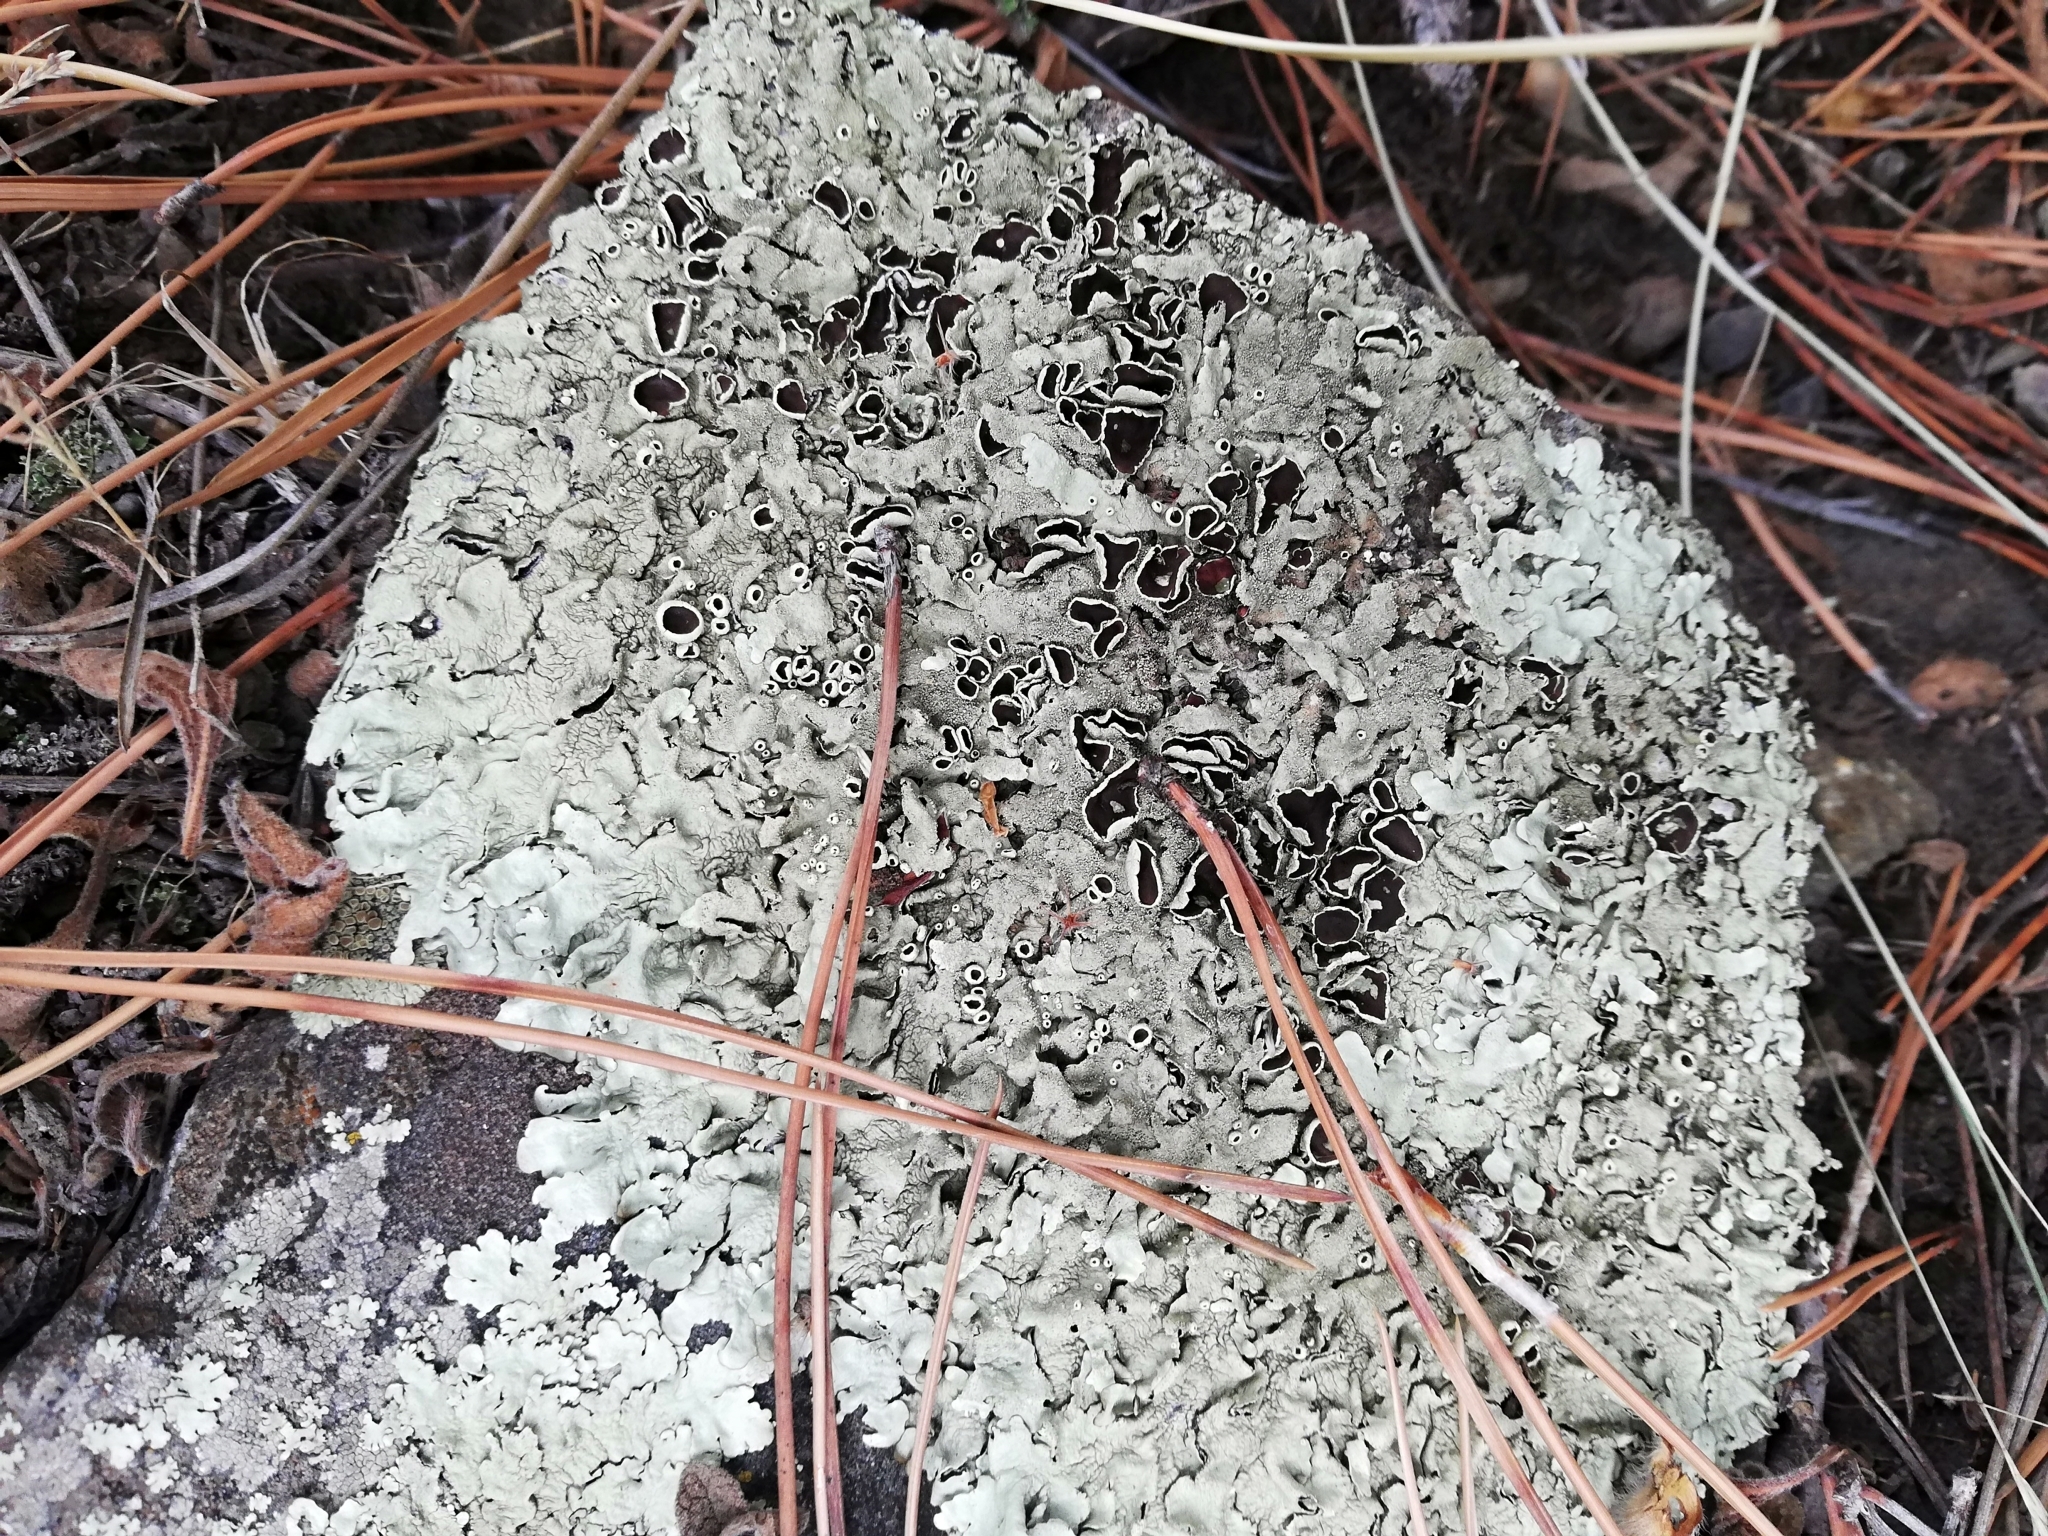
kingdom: Fungi
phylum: Ascomycota
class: Lecanoromycetes
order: Lecanorales
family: Parmeliaceae
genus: Xanthoparmelia
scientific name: Xanthoparmelia conspersa
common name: Peppered rock shield
